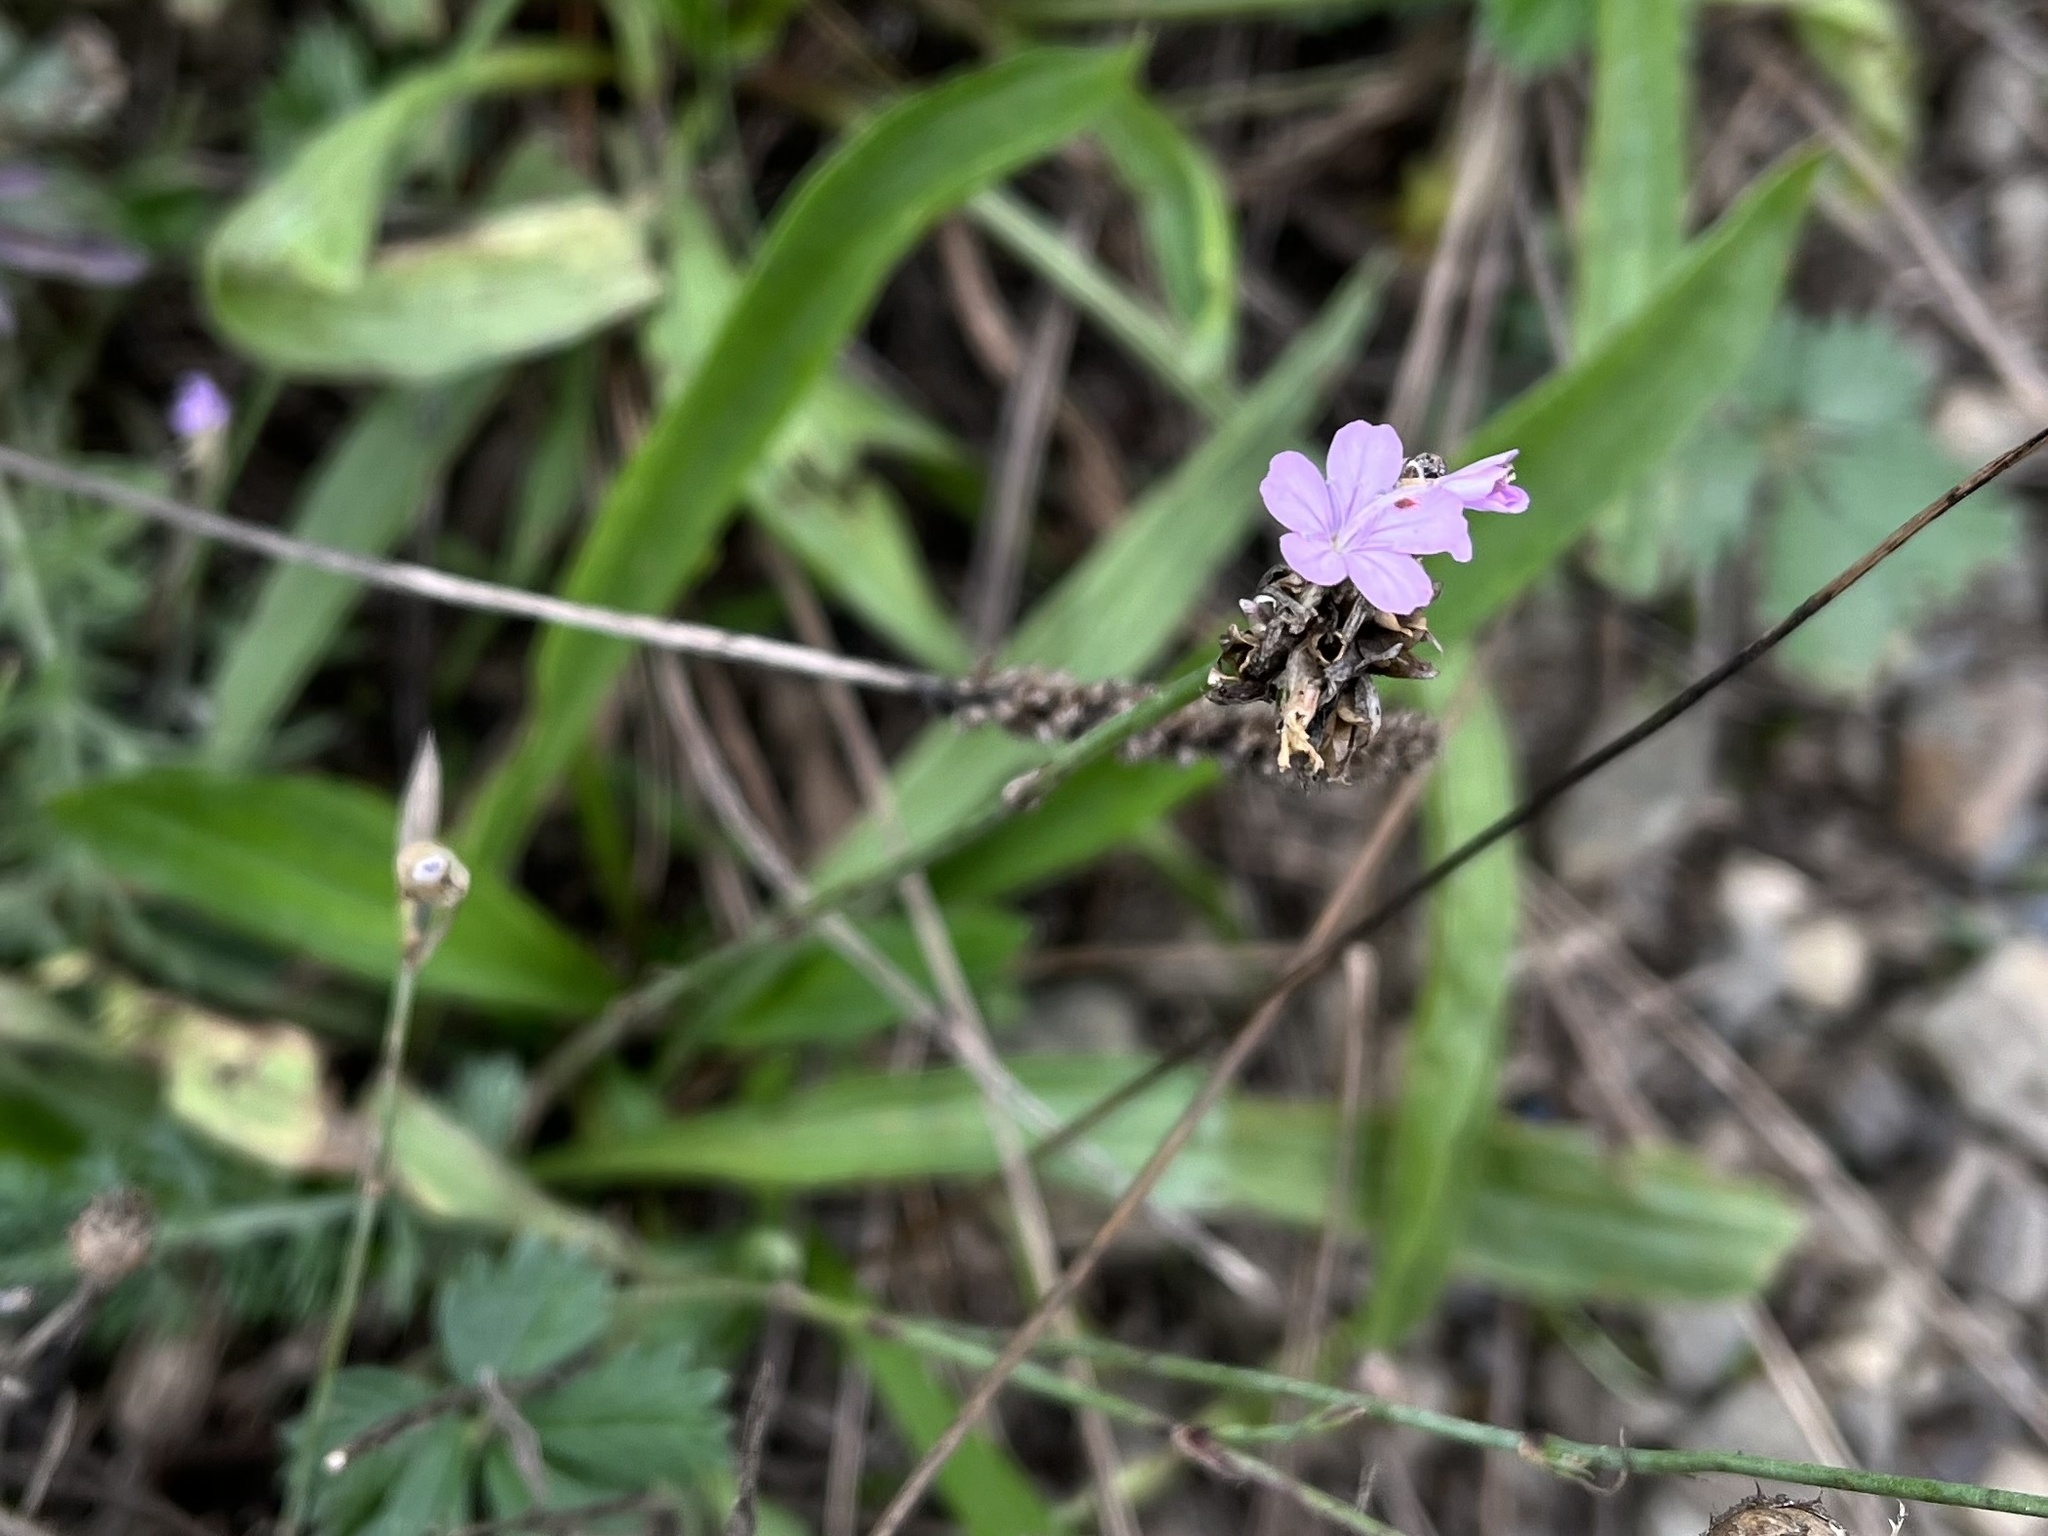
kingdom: Plantae
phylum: Tracheophyta
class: Magnoliopsida
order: Caryophyllales
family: Caryophyllaceae
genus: Petrorhagia
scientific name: Petrorhagia prolifera
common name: Proliferous pink
